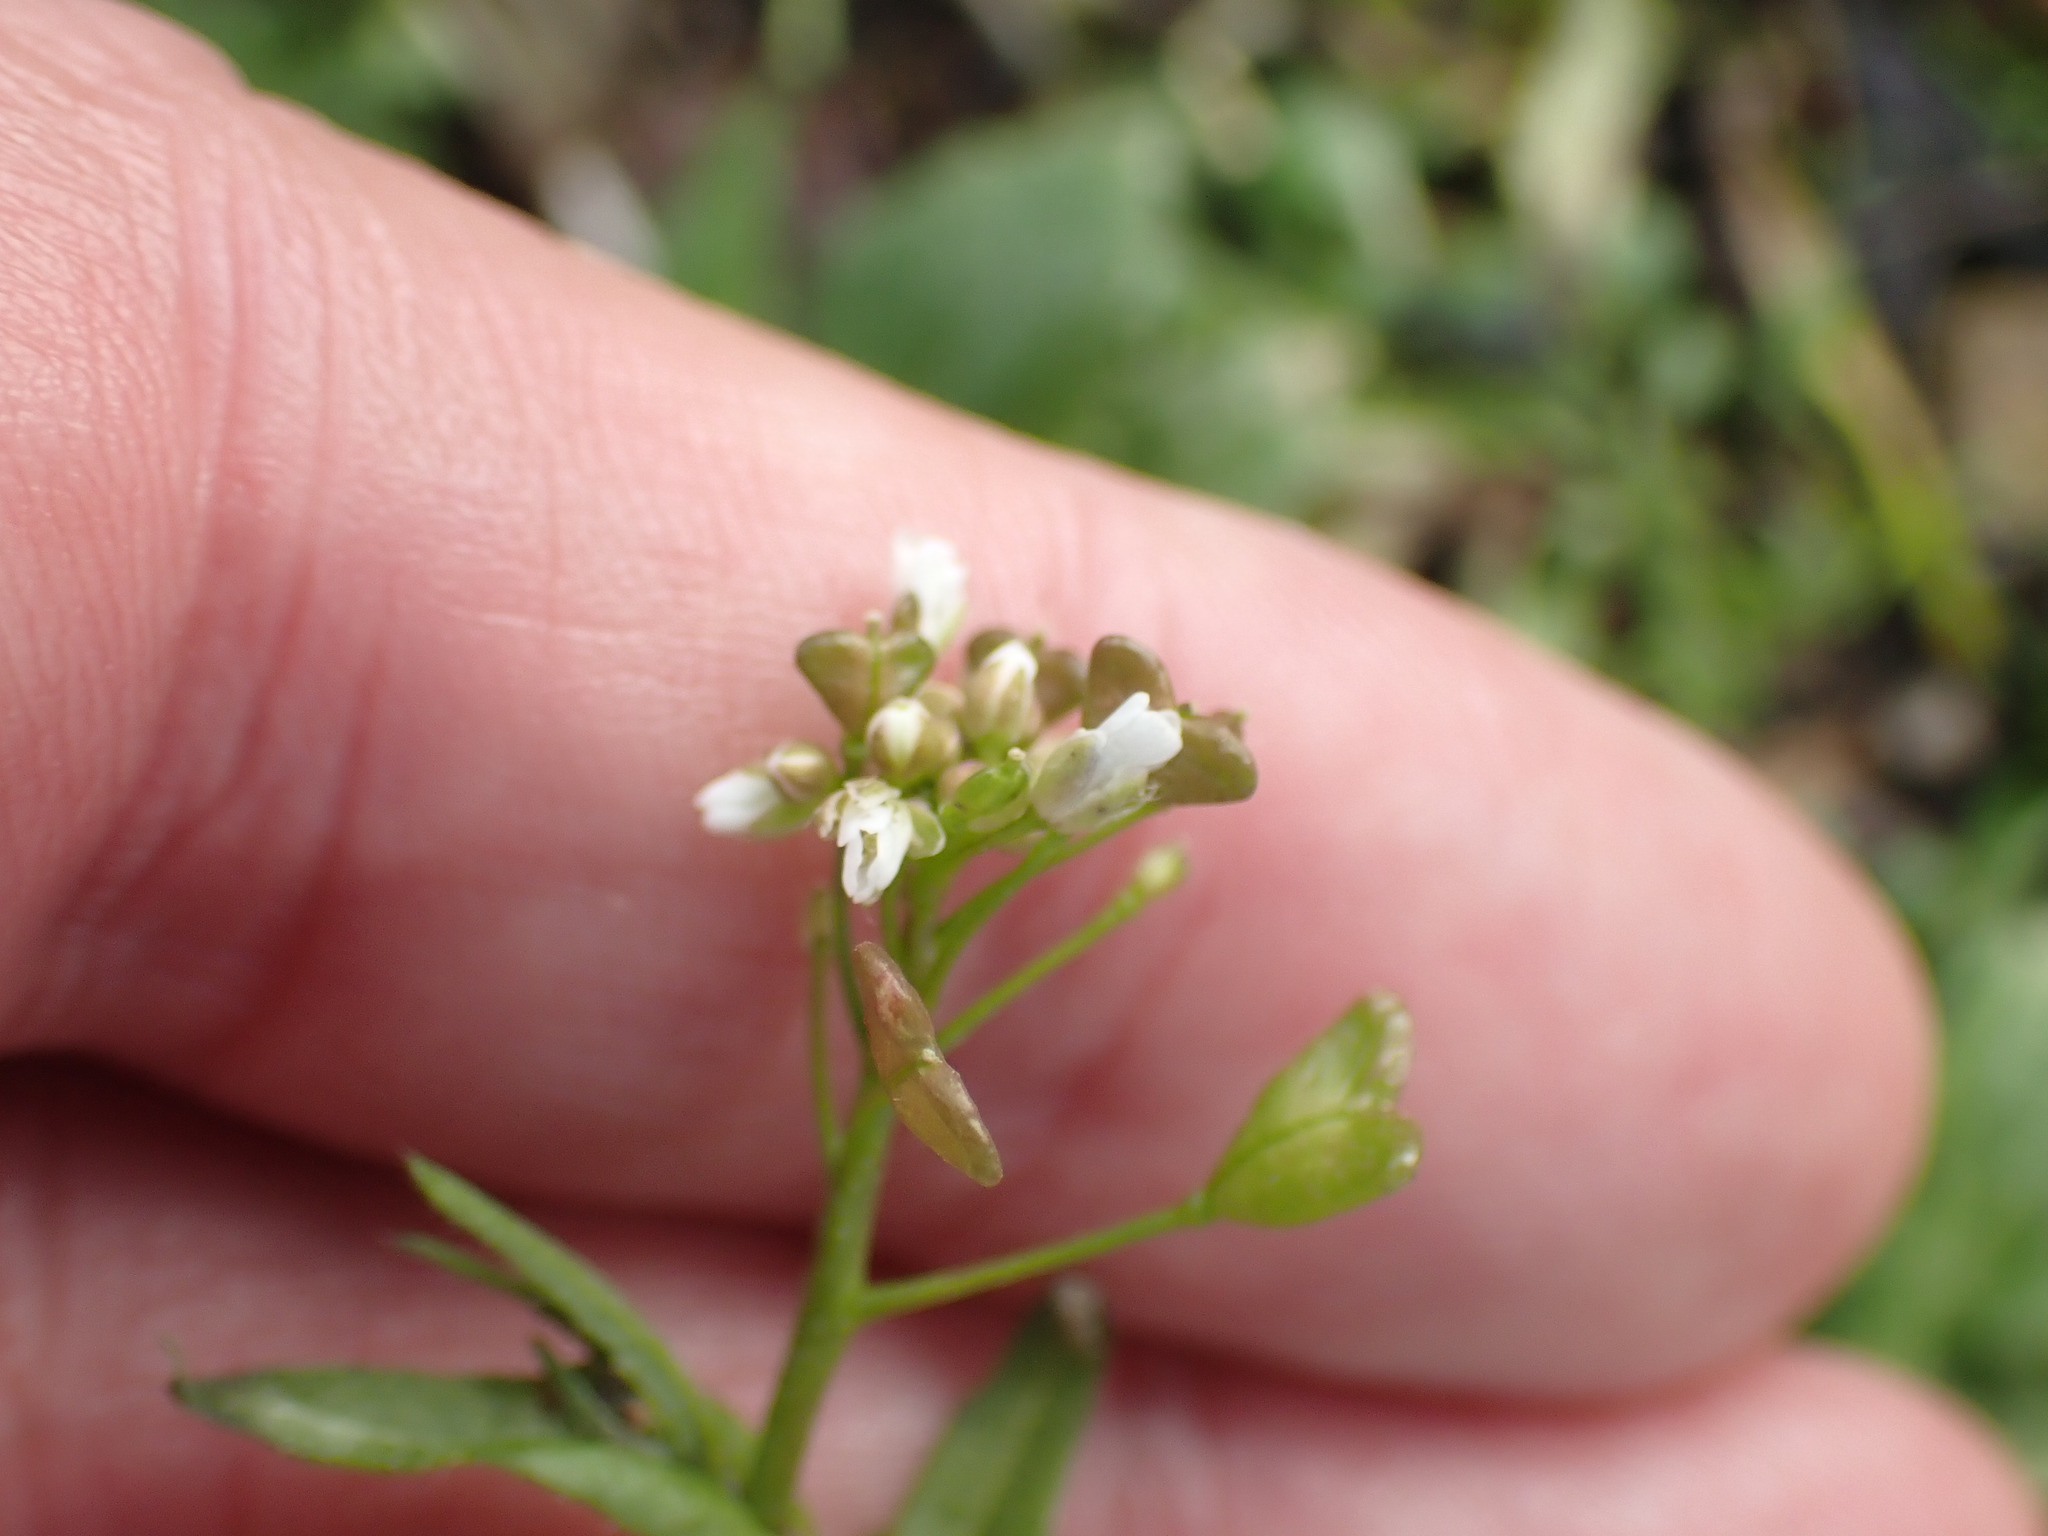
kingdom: Plantae
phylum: Tracheophyta
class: Magnoliopsida
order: Brassicales
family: Brassicaceae
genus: Capsella
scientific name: Capsella bursa-pastoris
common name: Shepherd's purse
